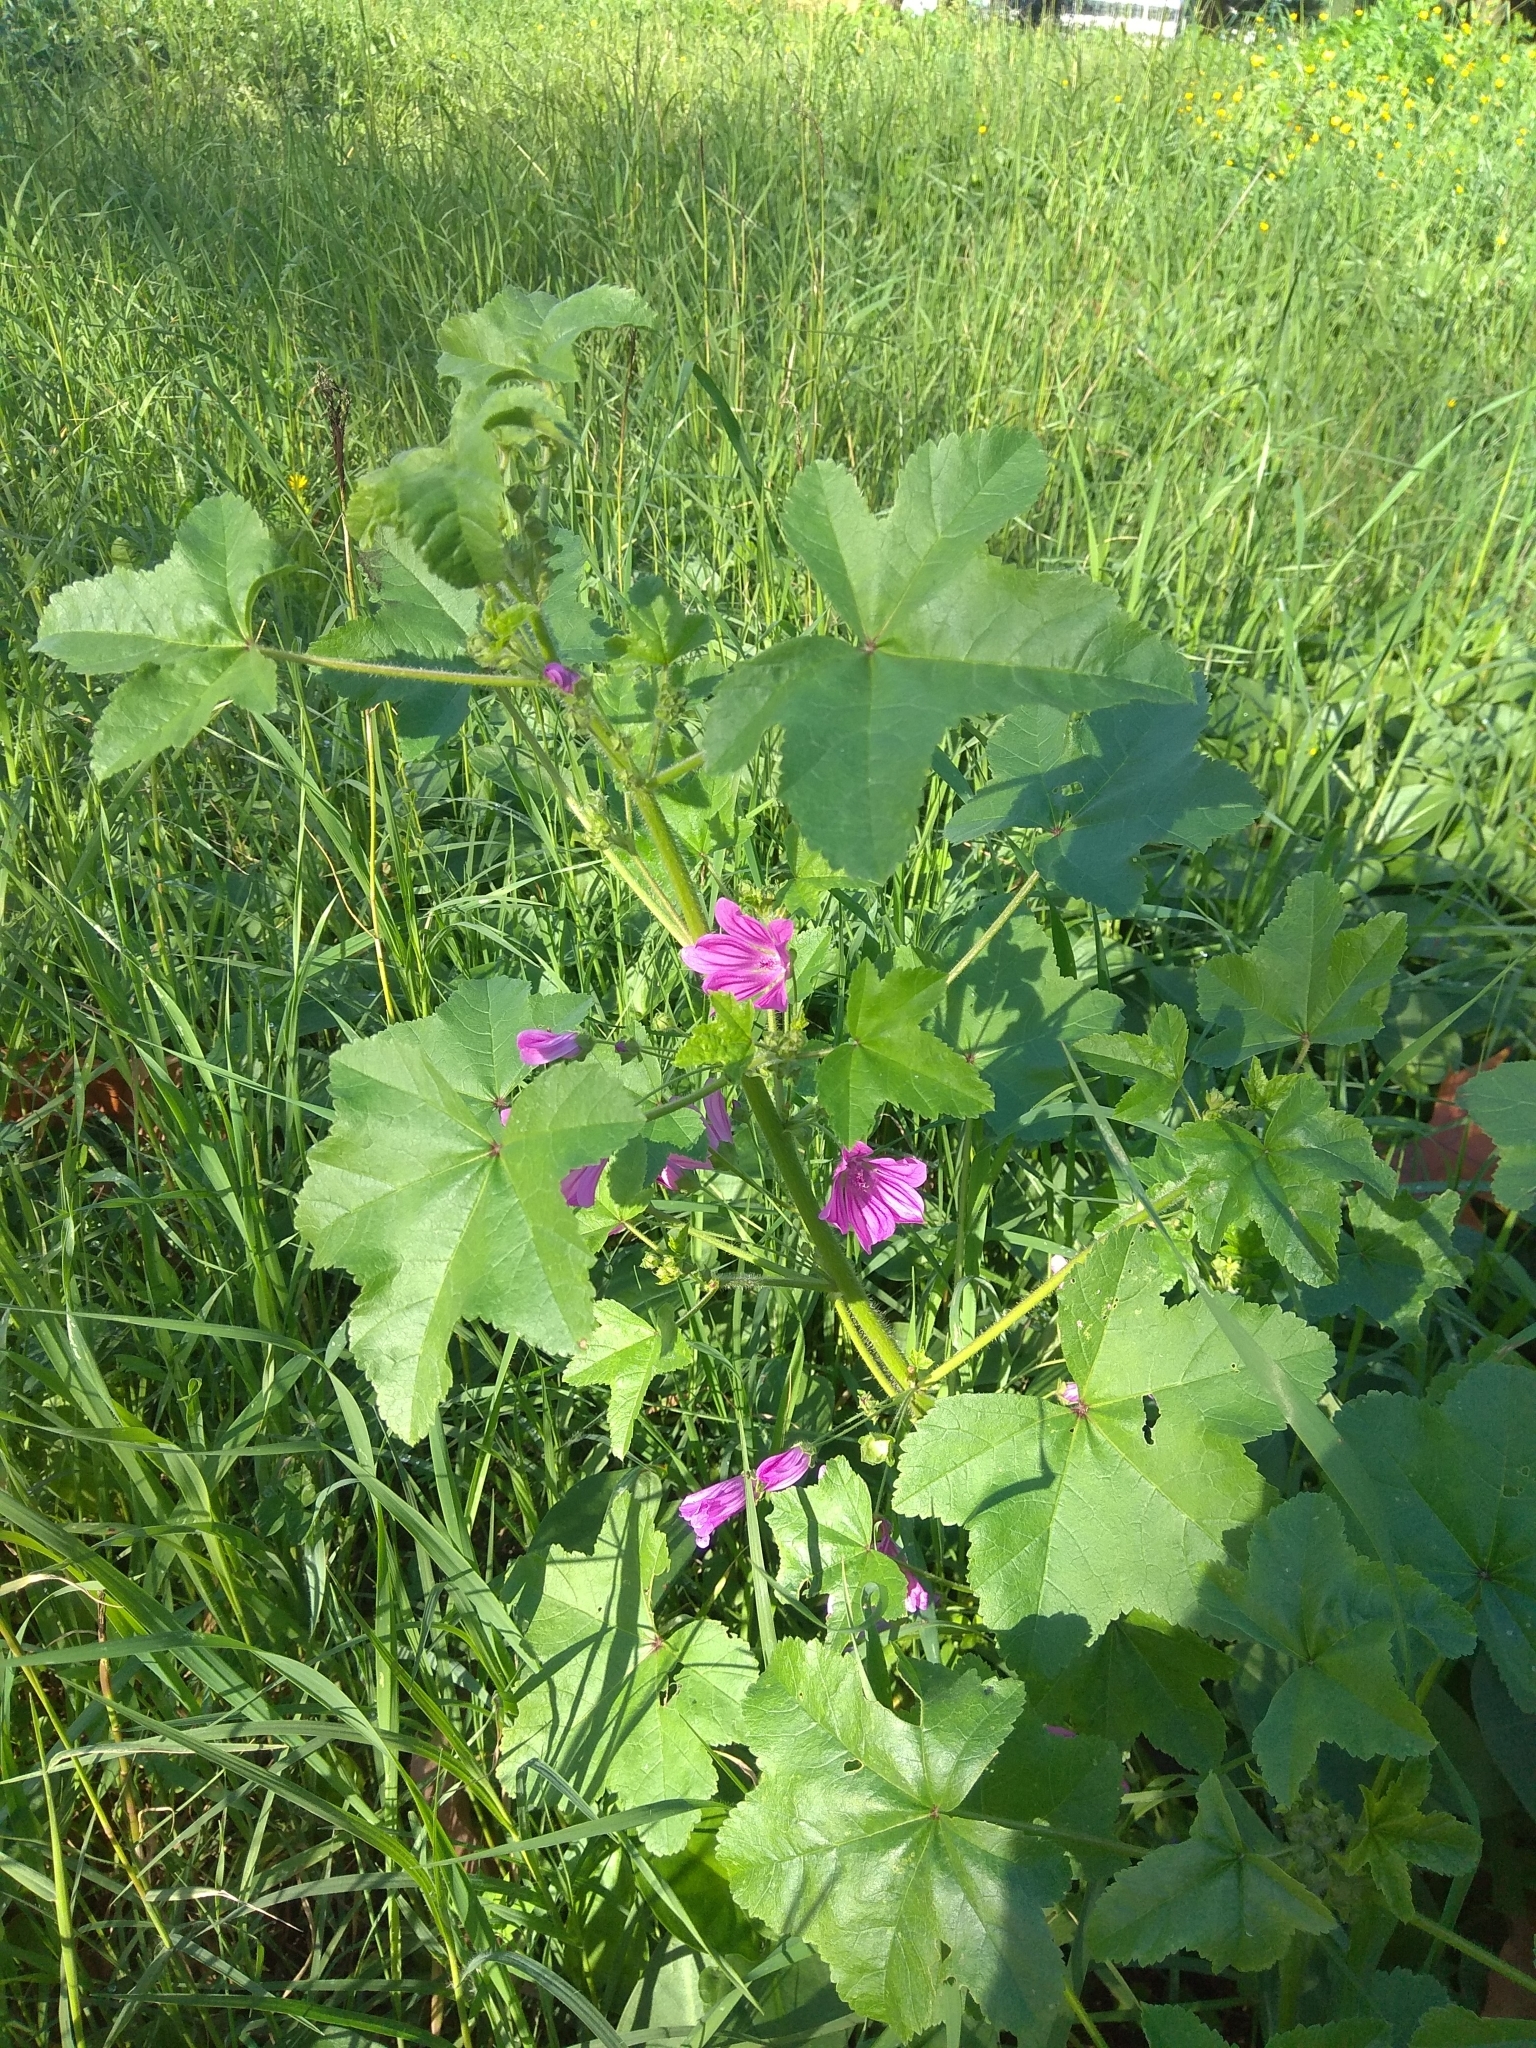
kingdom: Plantae
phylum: Tracheophyta
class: Magnoliopsida
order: Malvales
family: Malvaceae
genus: Malva
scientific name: Malva sylvestris
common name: Common mallow
